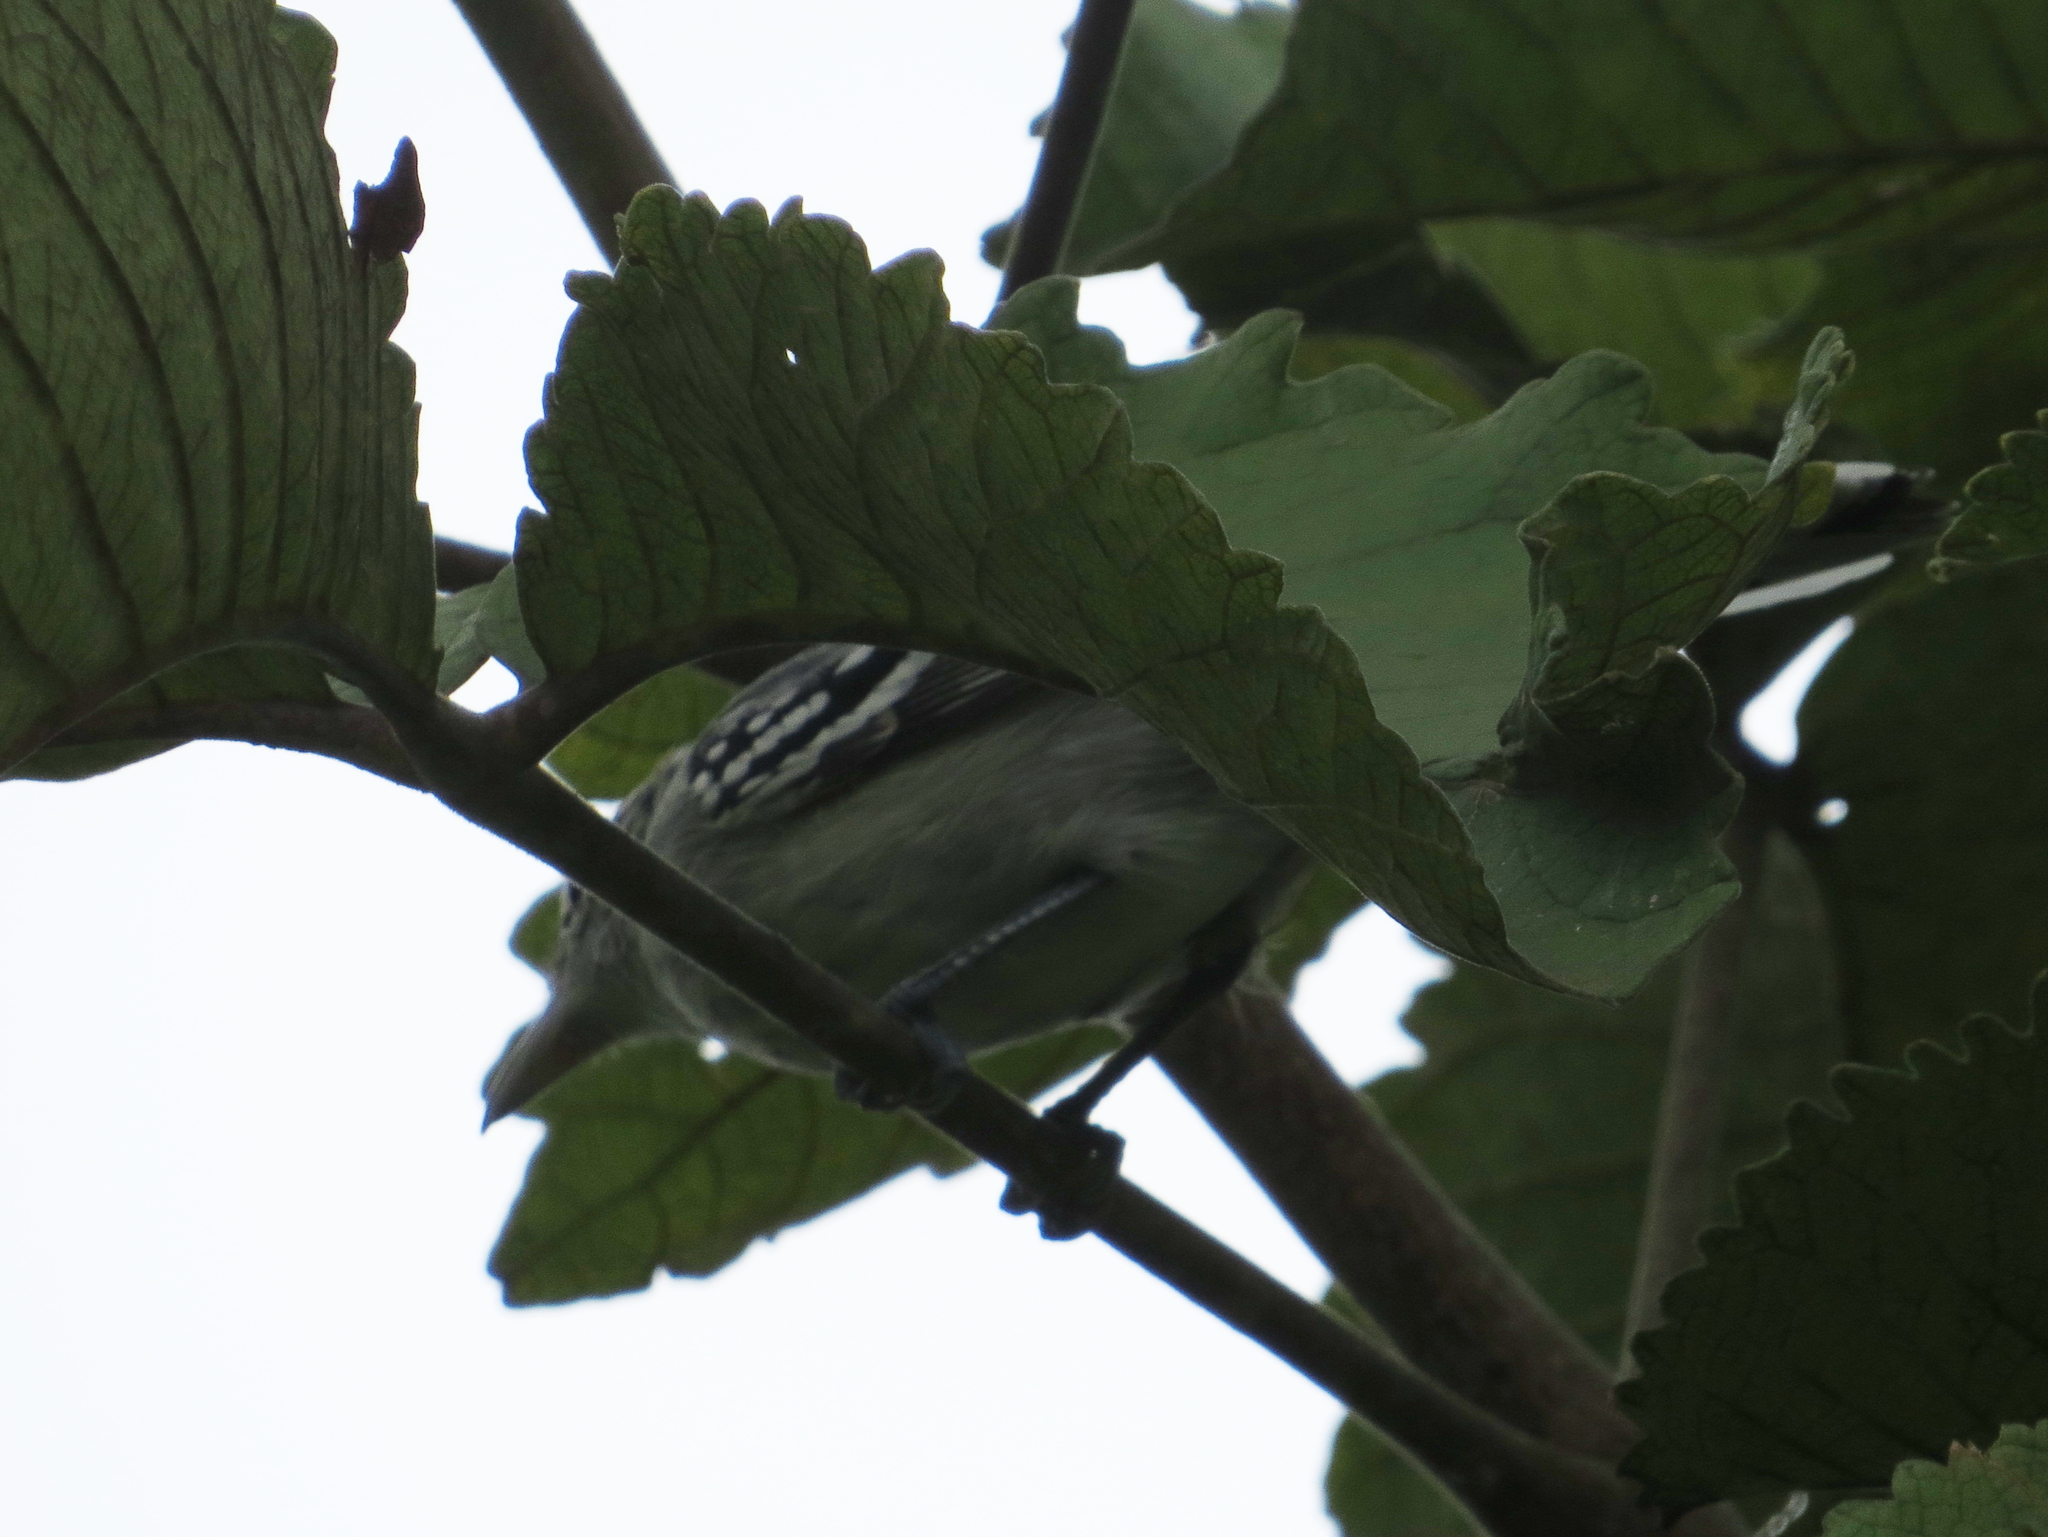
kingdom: Animalia
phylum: Chordata
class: Aves
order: Passeriformes
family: Thamnophilidae
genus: Herpsilochmus
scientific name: Herpsilochmus longirostris
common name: Large-billed antwren
